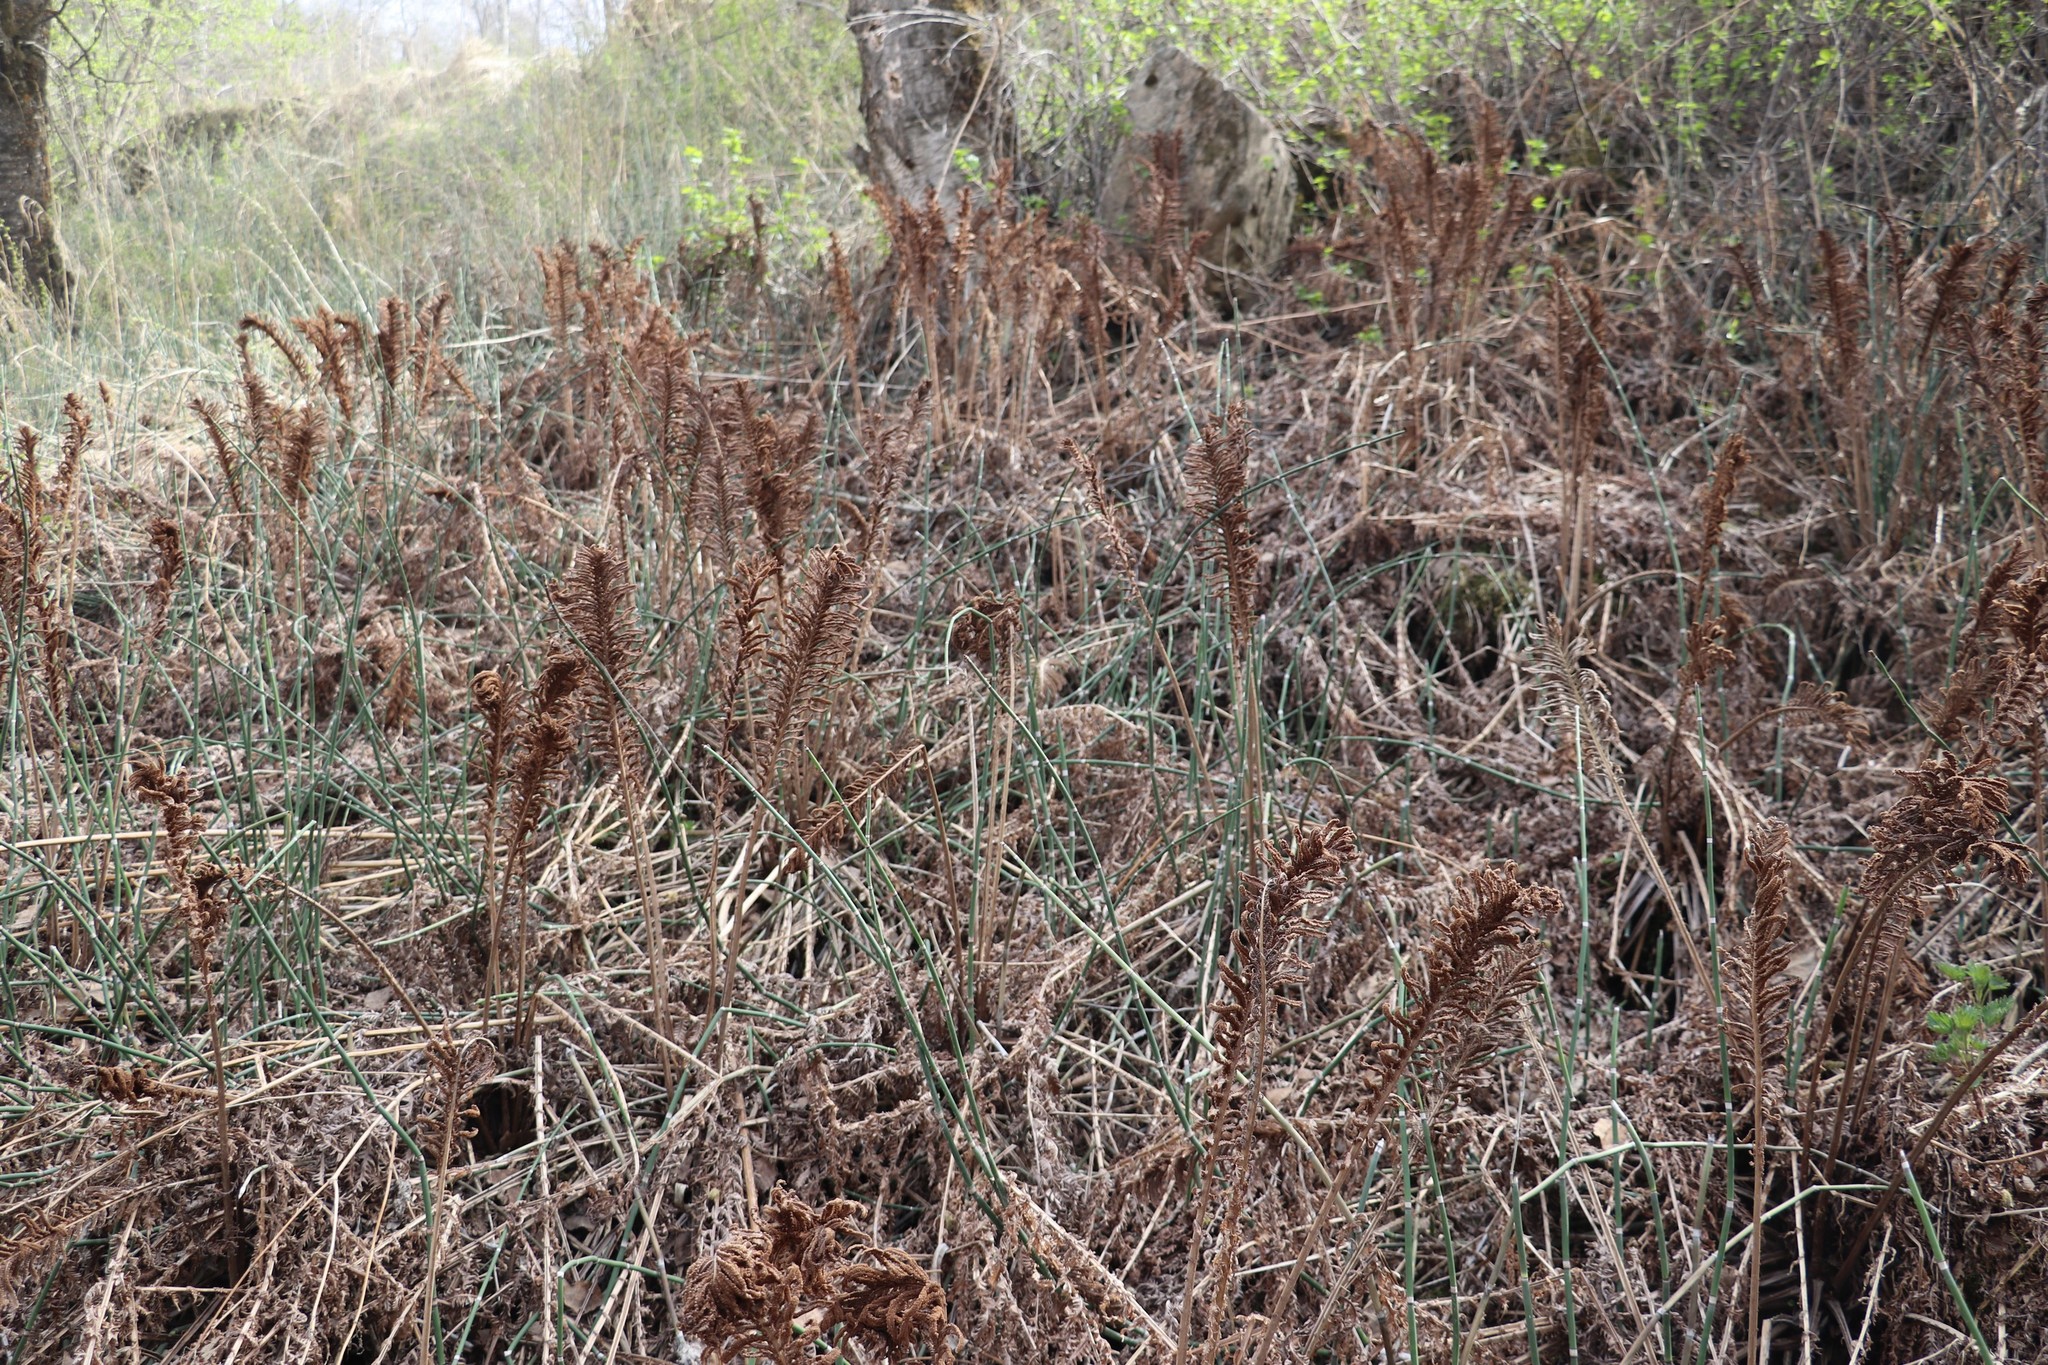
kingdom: Plantae
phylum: Tracheophyta
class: Polypodiopsida
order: Polypodiales
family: Onocleaceae
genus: Matteuccia
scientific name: Matteuccia struthiopteris
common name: Ostrich fern
